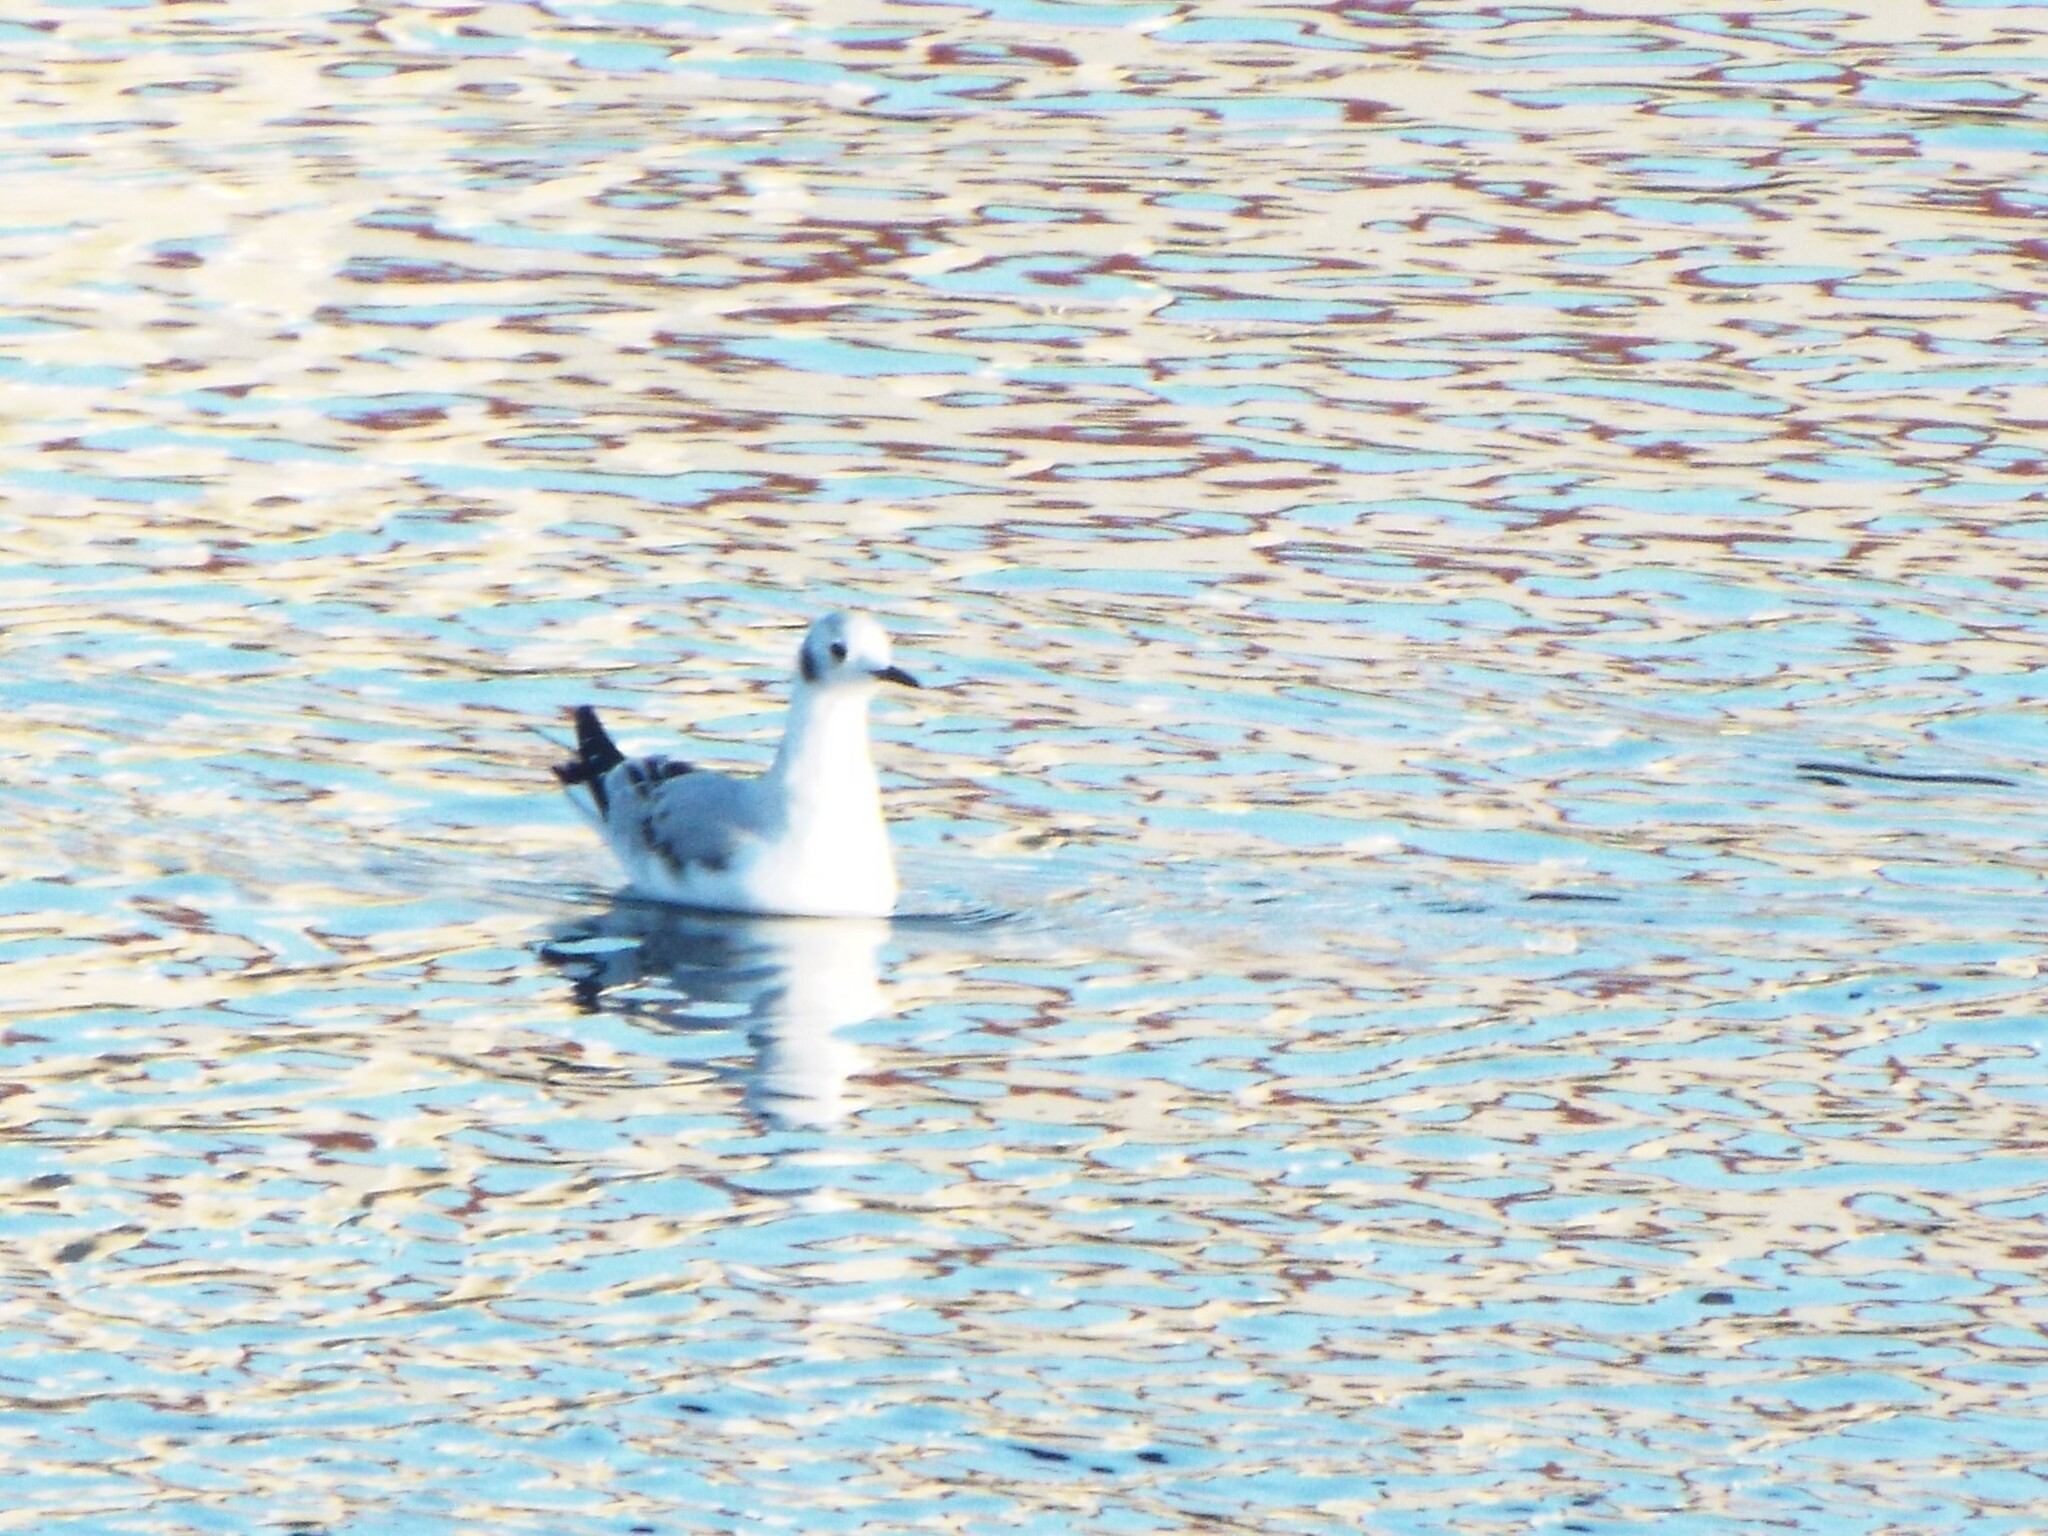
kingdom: Animalia
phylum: Chordata
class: Aves
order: Charadriiformes
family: Laridae
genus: Chroicocephalus
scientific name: Chroicocephalus philadelphia
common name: Bonaparte's gull
